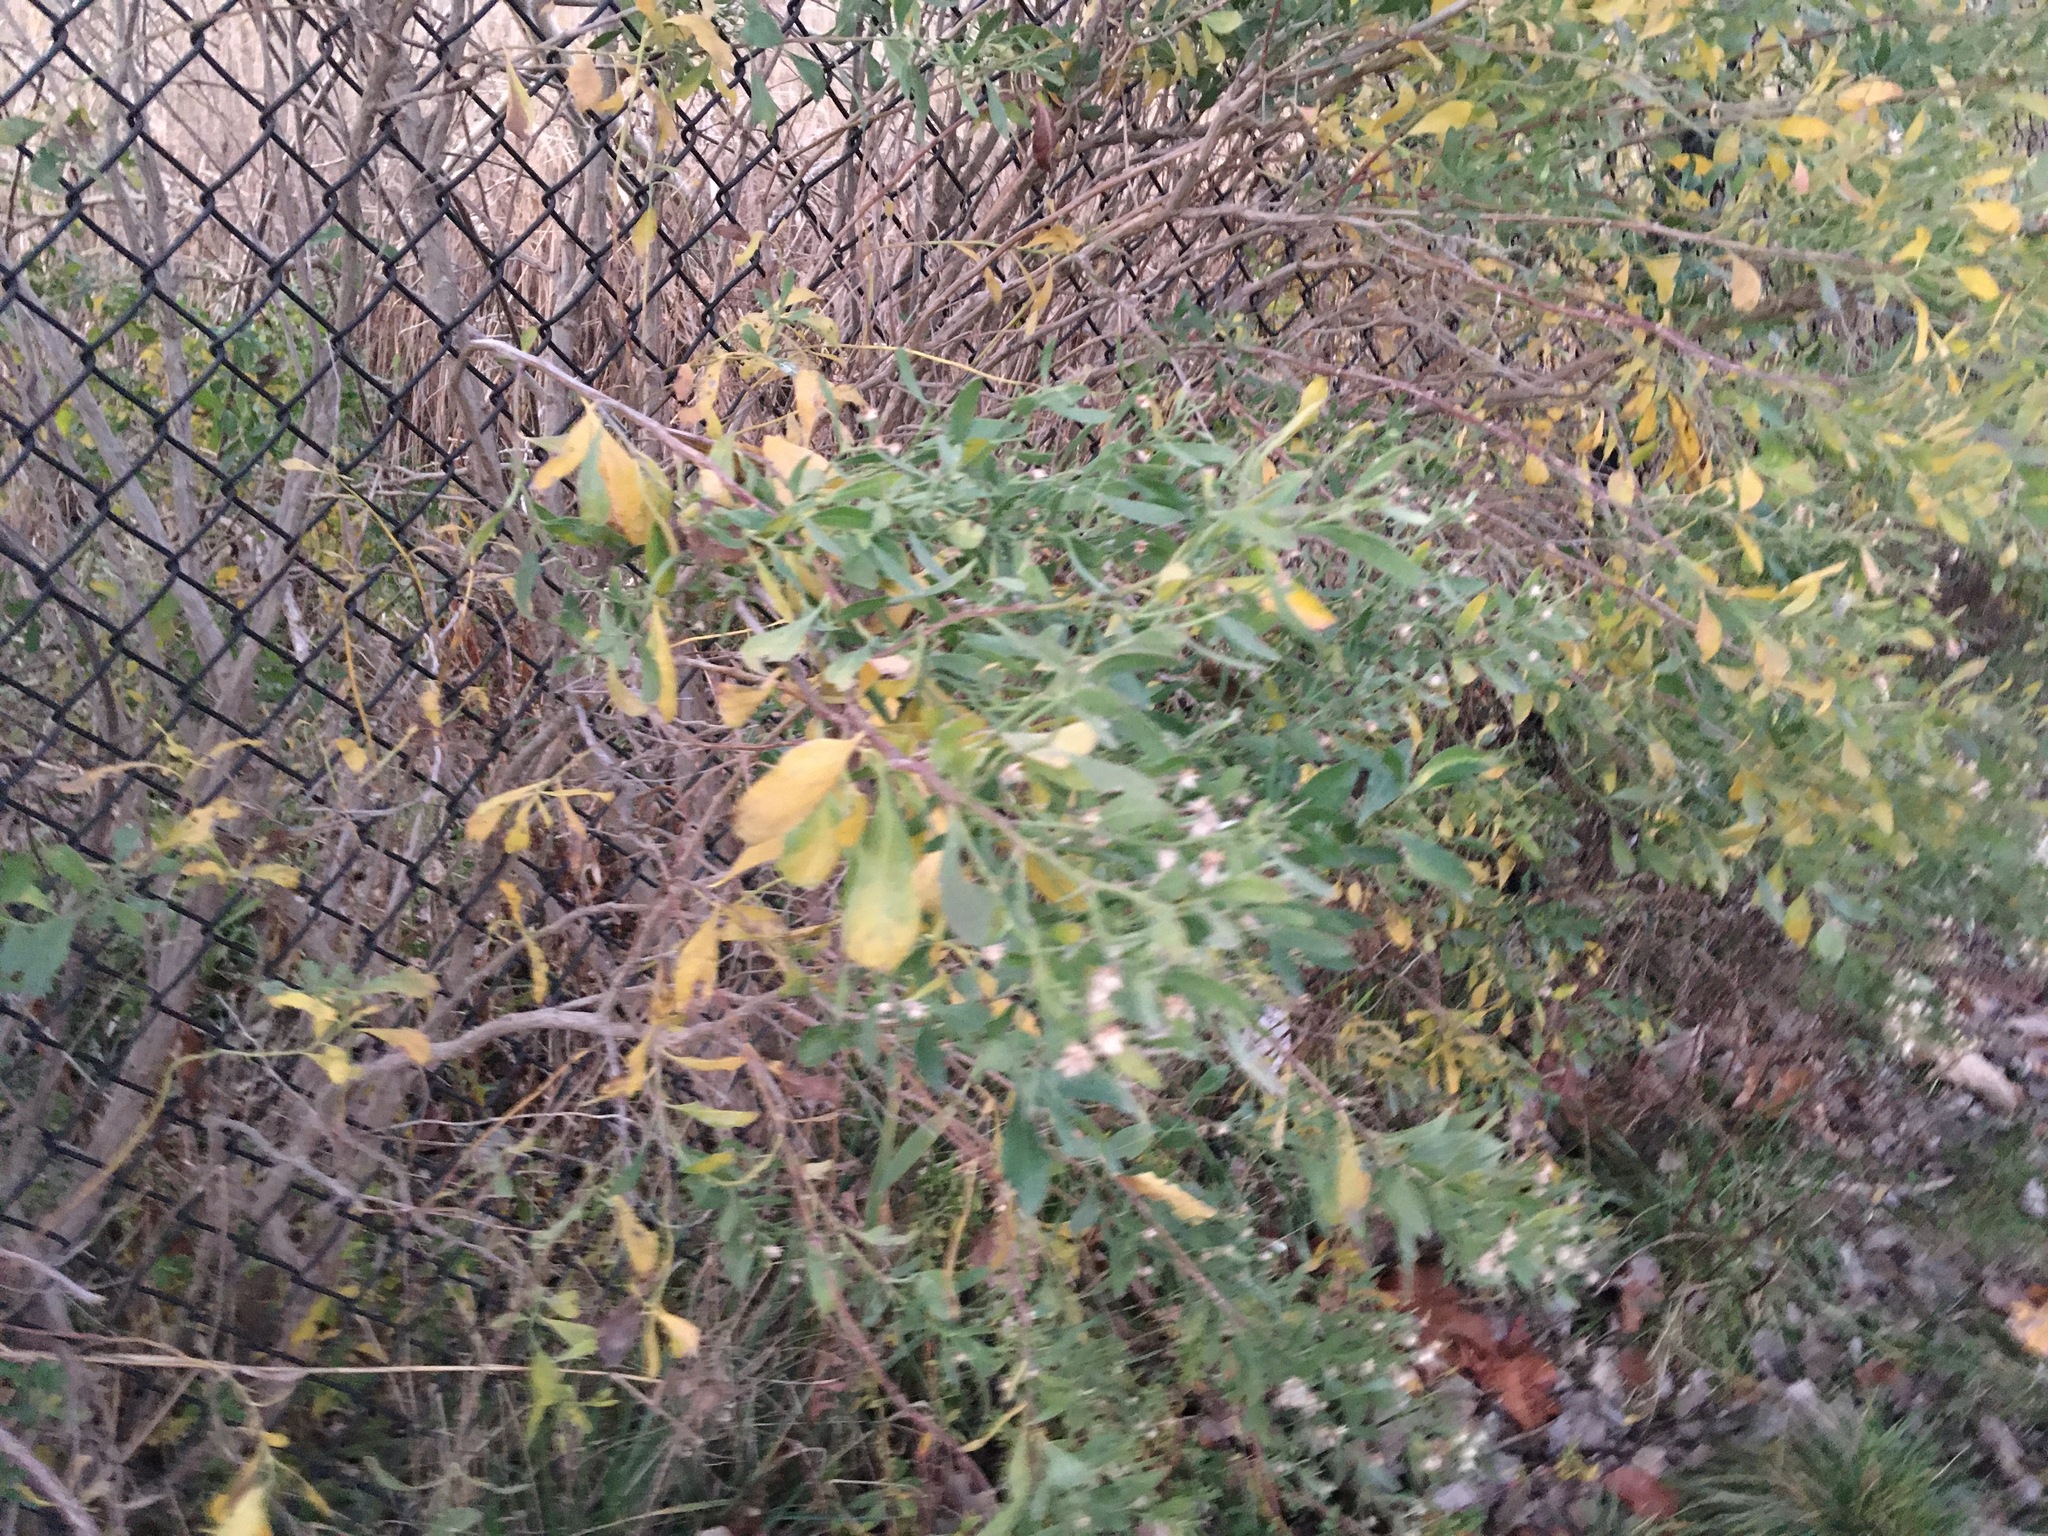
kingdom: Plantae
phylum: Tracheophyta
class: Magnoliopsida
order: Asterales
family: Asteraceae
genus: Baccharis
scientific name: Baccharis halimifolia
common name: Eastern baccharis
